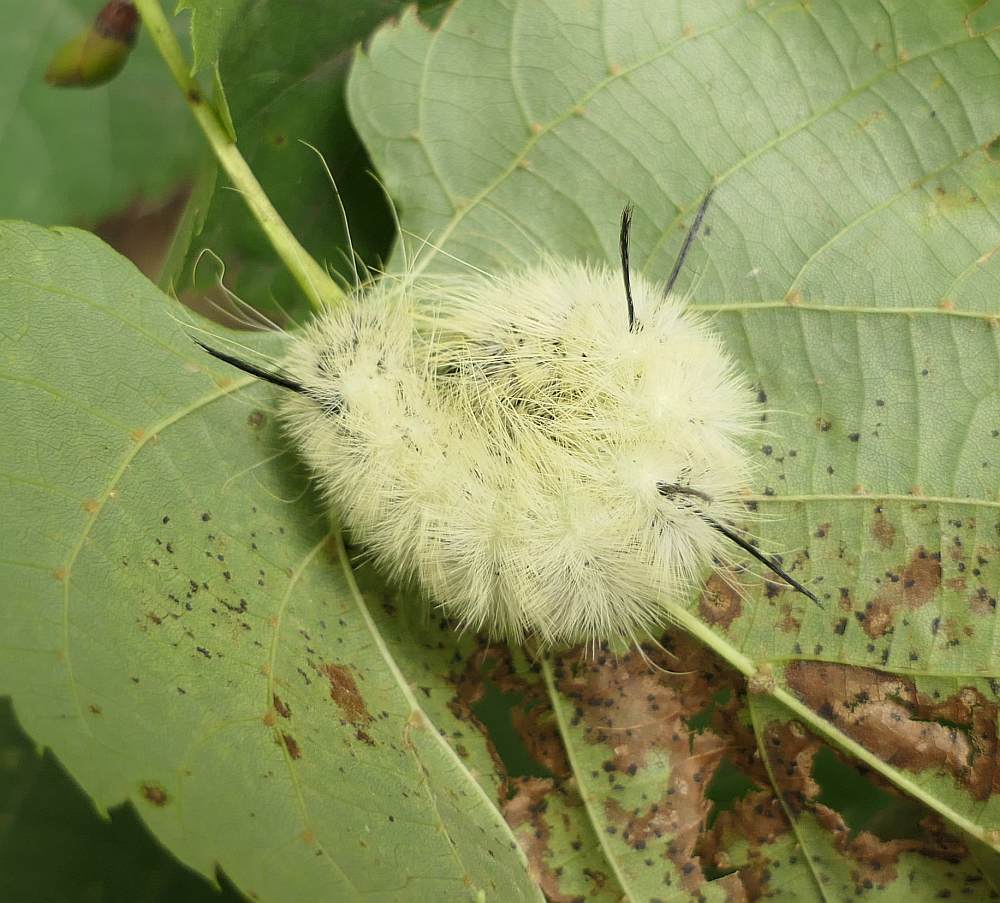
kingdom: Animalia
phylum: Arthropoda
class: Insecta
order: Lepidoptera
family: Noctuidae
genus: Acronicta
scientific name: Acronicta americana
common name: American dagger
